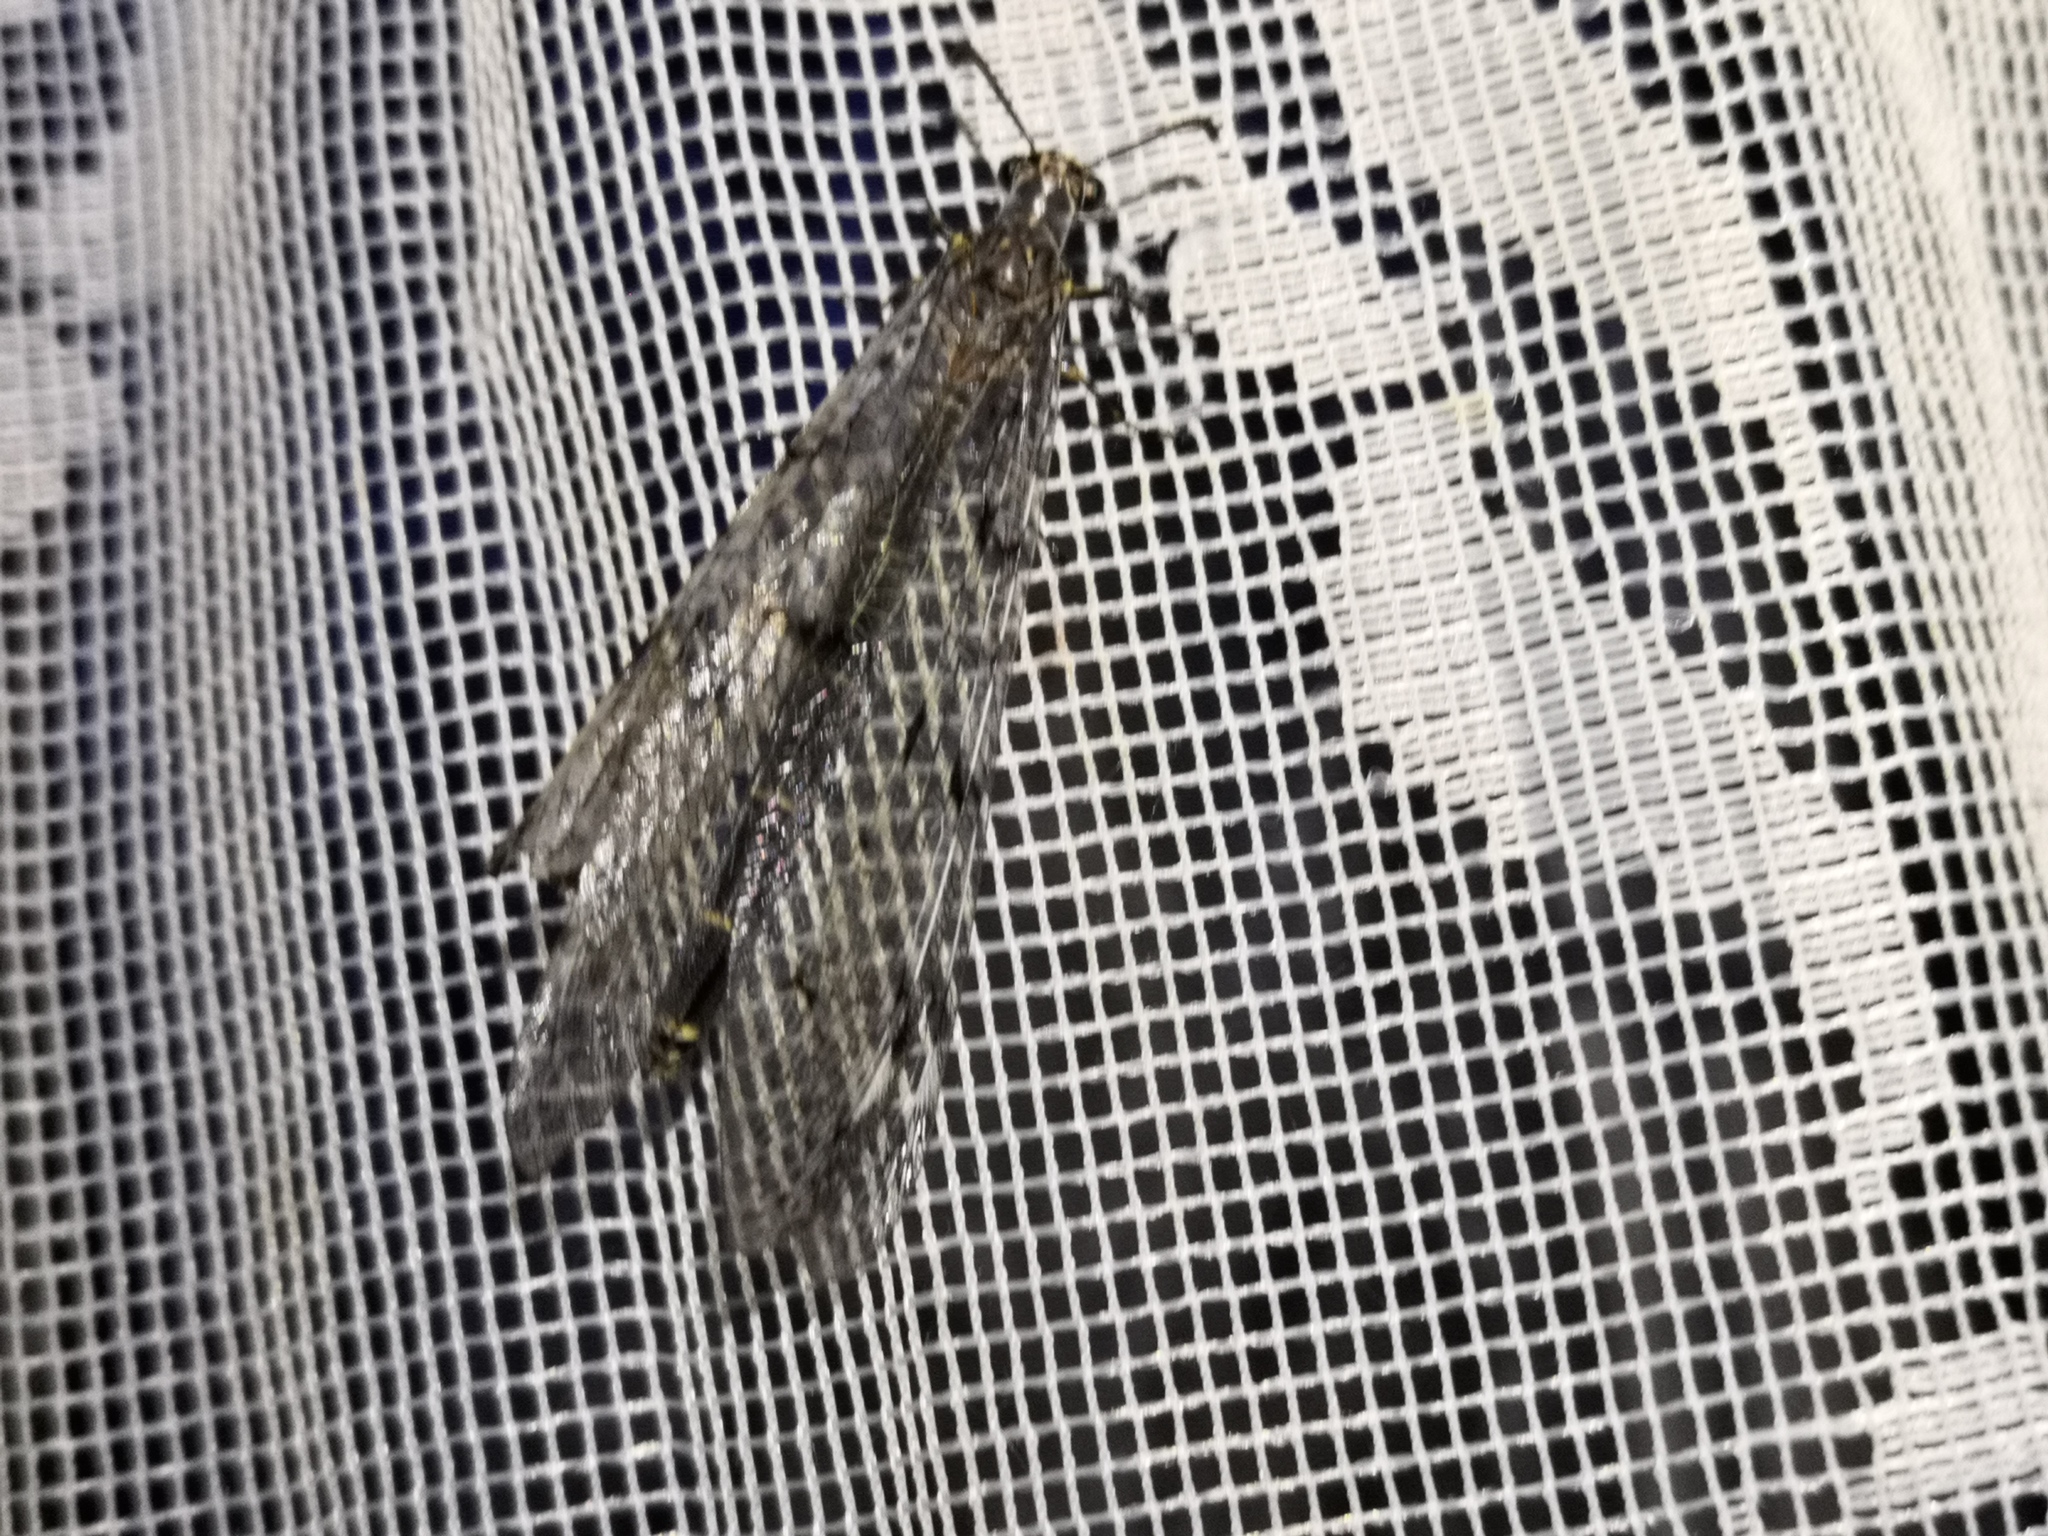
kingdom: Animalia
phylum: Arthropoda
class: Insecta
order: Neuroptera
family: Myrmeleontidae
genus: Euroleon
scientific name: Euroleon nostras
